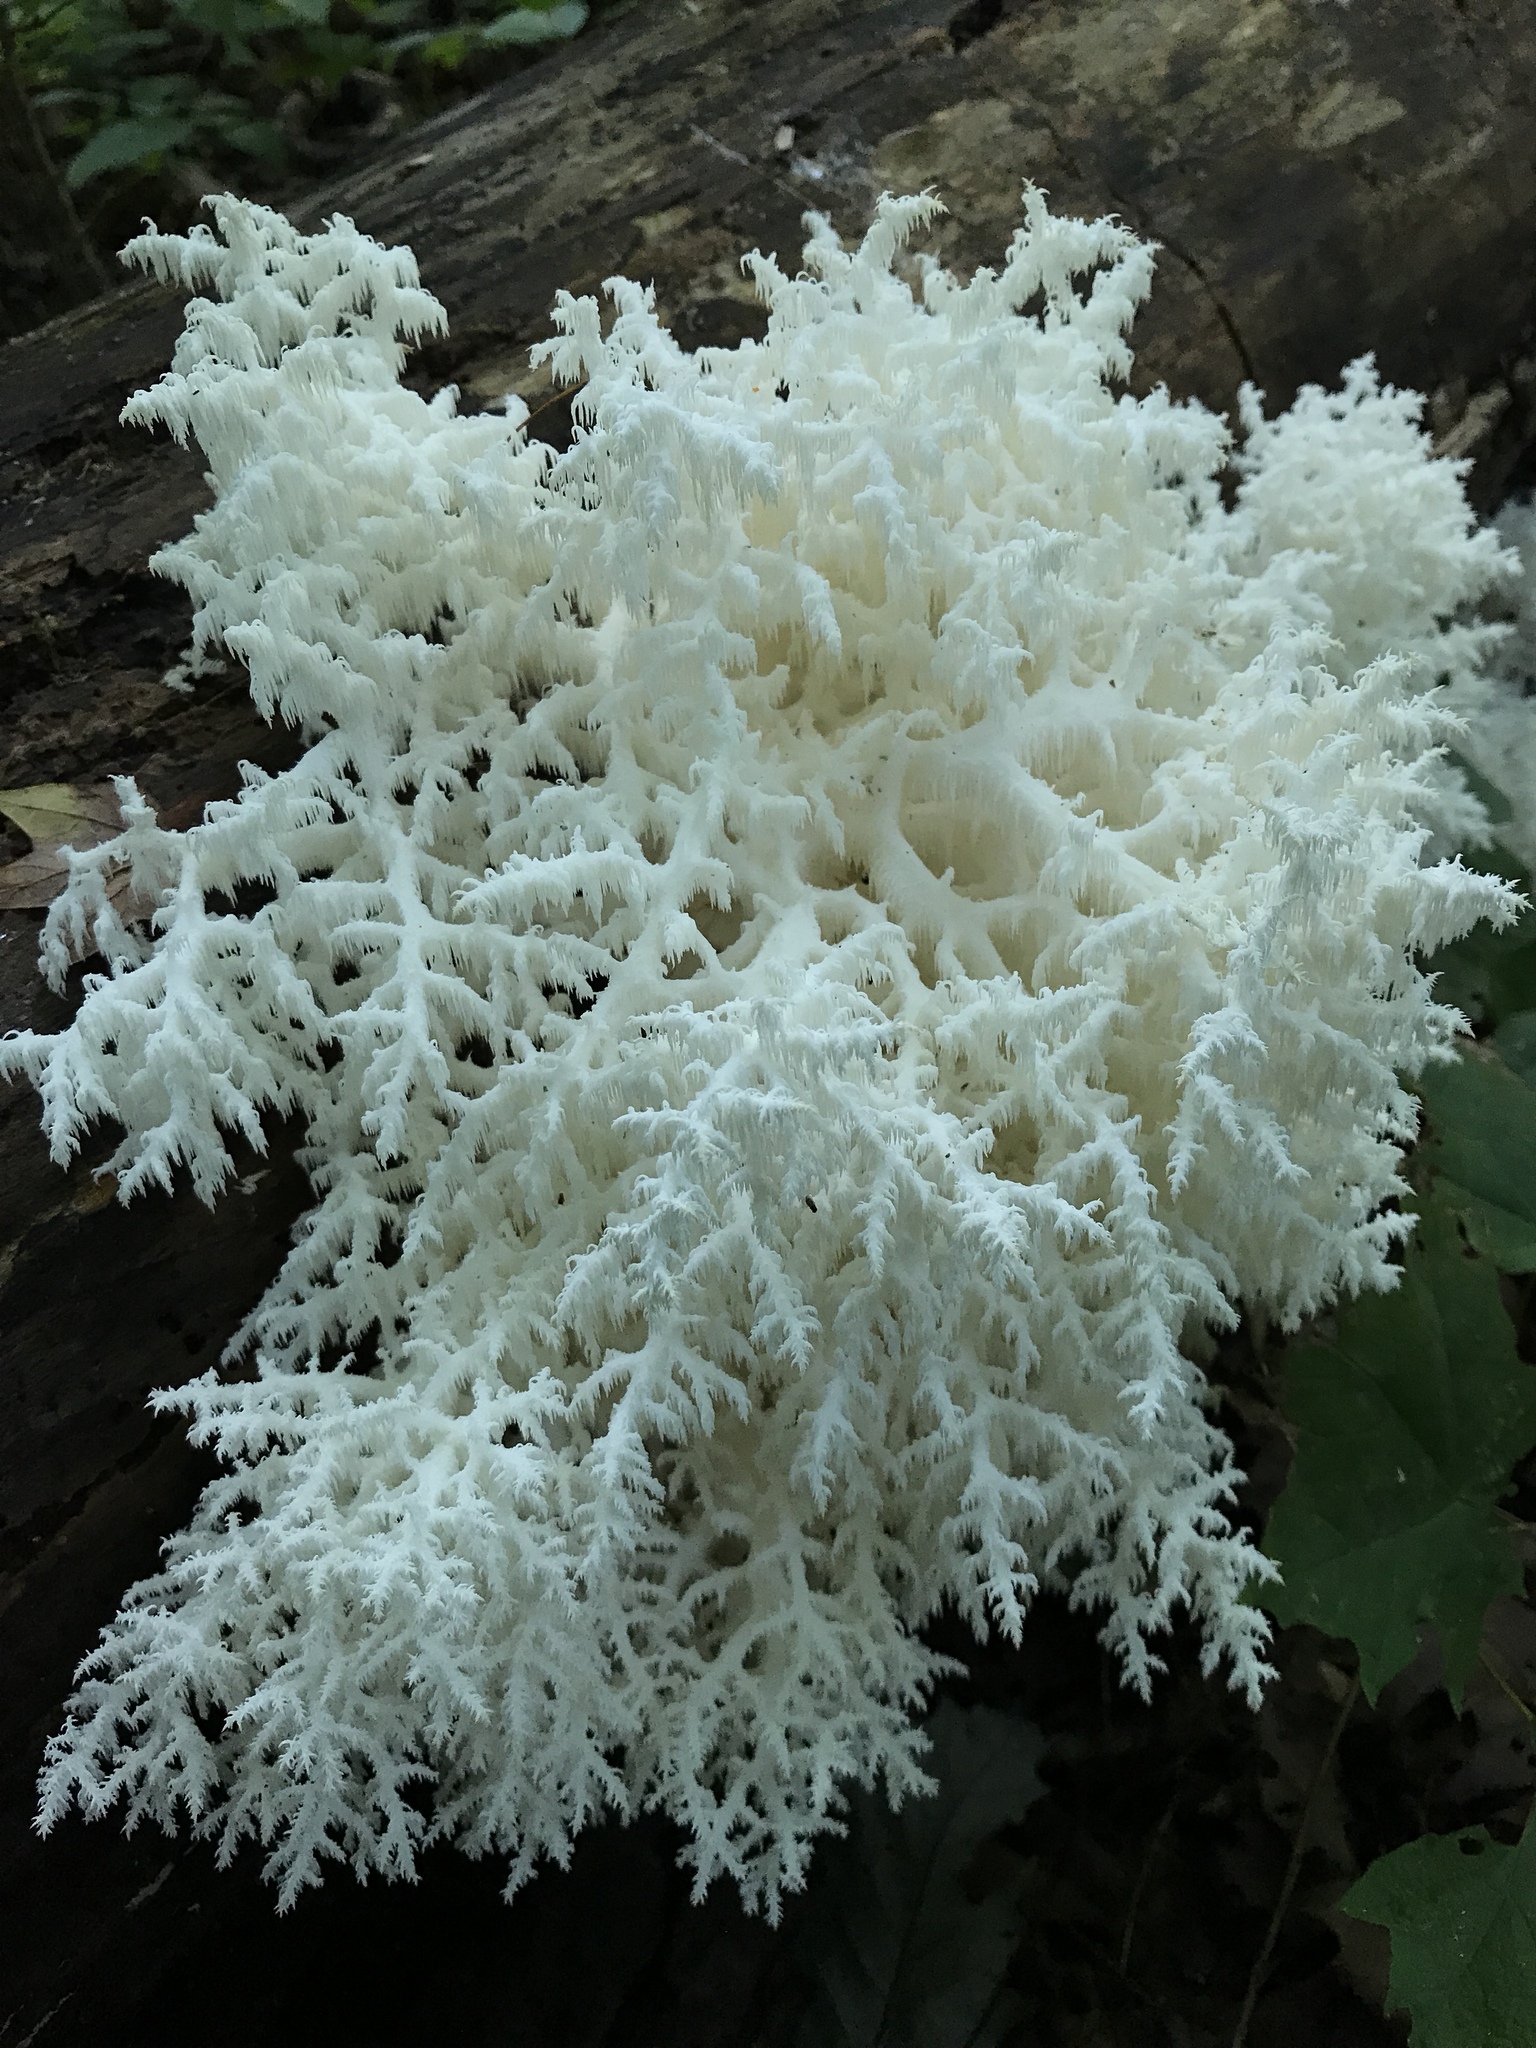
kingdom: Fungi
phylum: Basidiomycota
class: Agaricomycetes
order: Russulales
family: Hericiaceae
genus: Hericium
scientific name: Hericium coralloides
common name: Coral tooth
